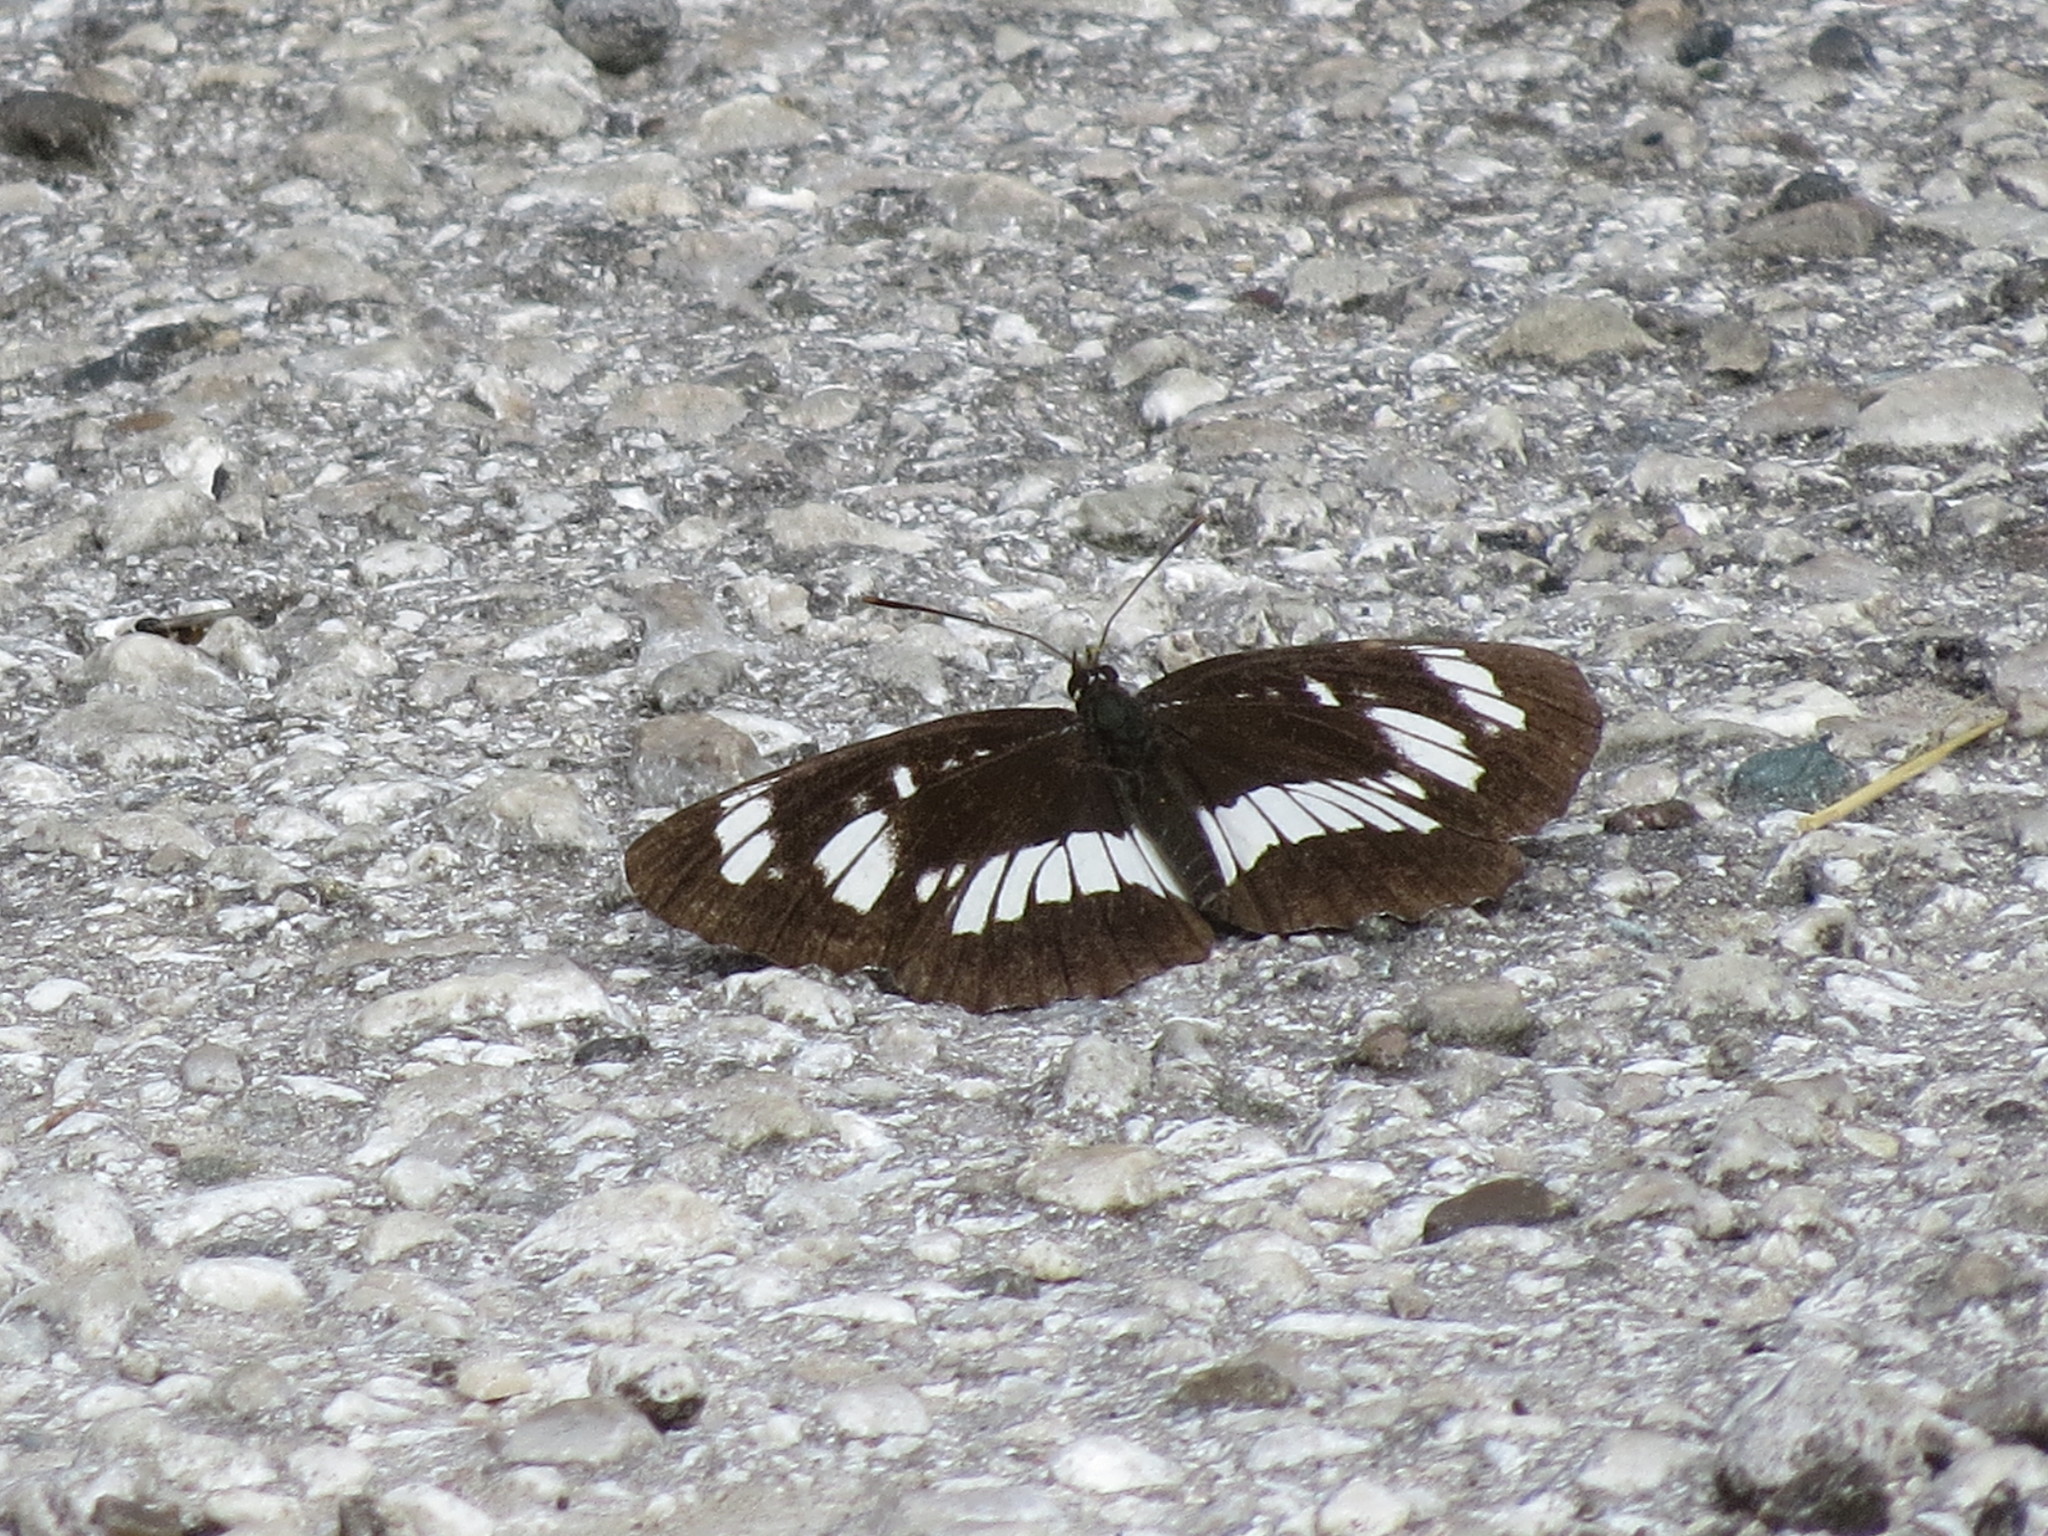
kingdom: Animalia
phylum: Arthropoda
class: Insecta
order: Lepidoptera
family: Nymphalidae
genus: Neptis
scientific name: Neptis rivularis
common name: Hungarian glider
